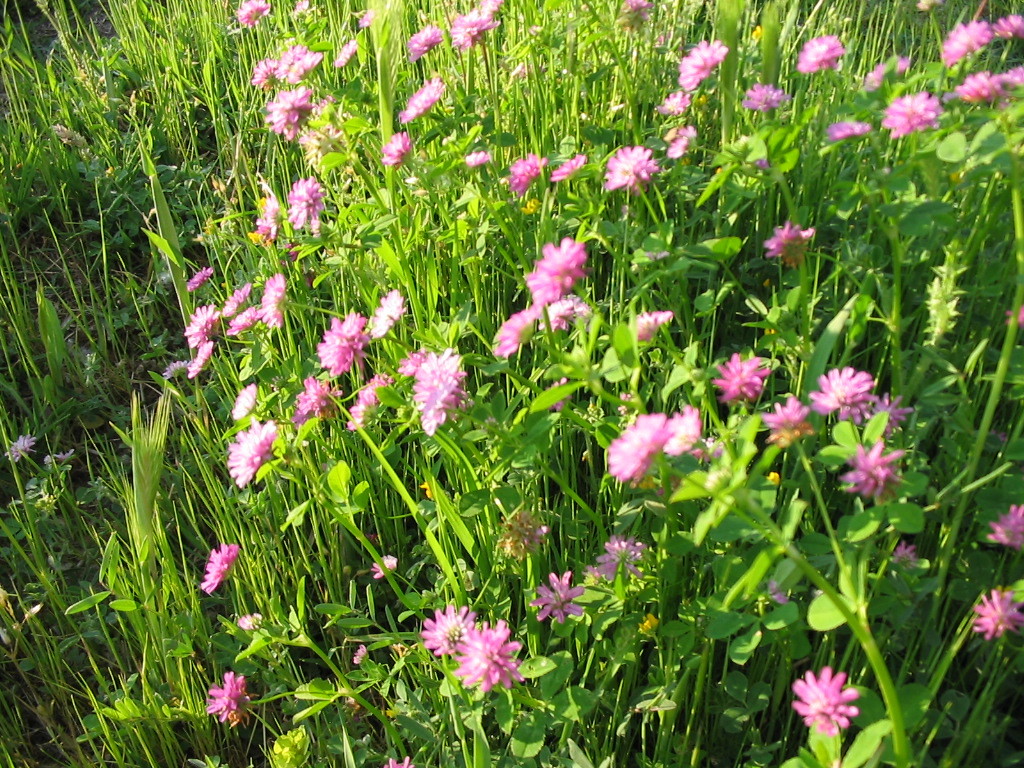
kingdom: Plantae
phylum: Tracheophyta
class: Magnoliopsida
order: Fabales
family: Fabaceae
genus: Trifolium
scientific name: Trifolium resupinatum
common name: Reversed clover
